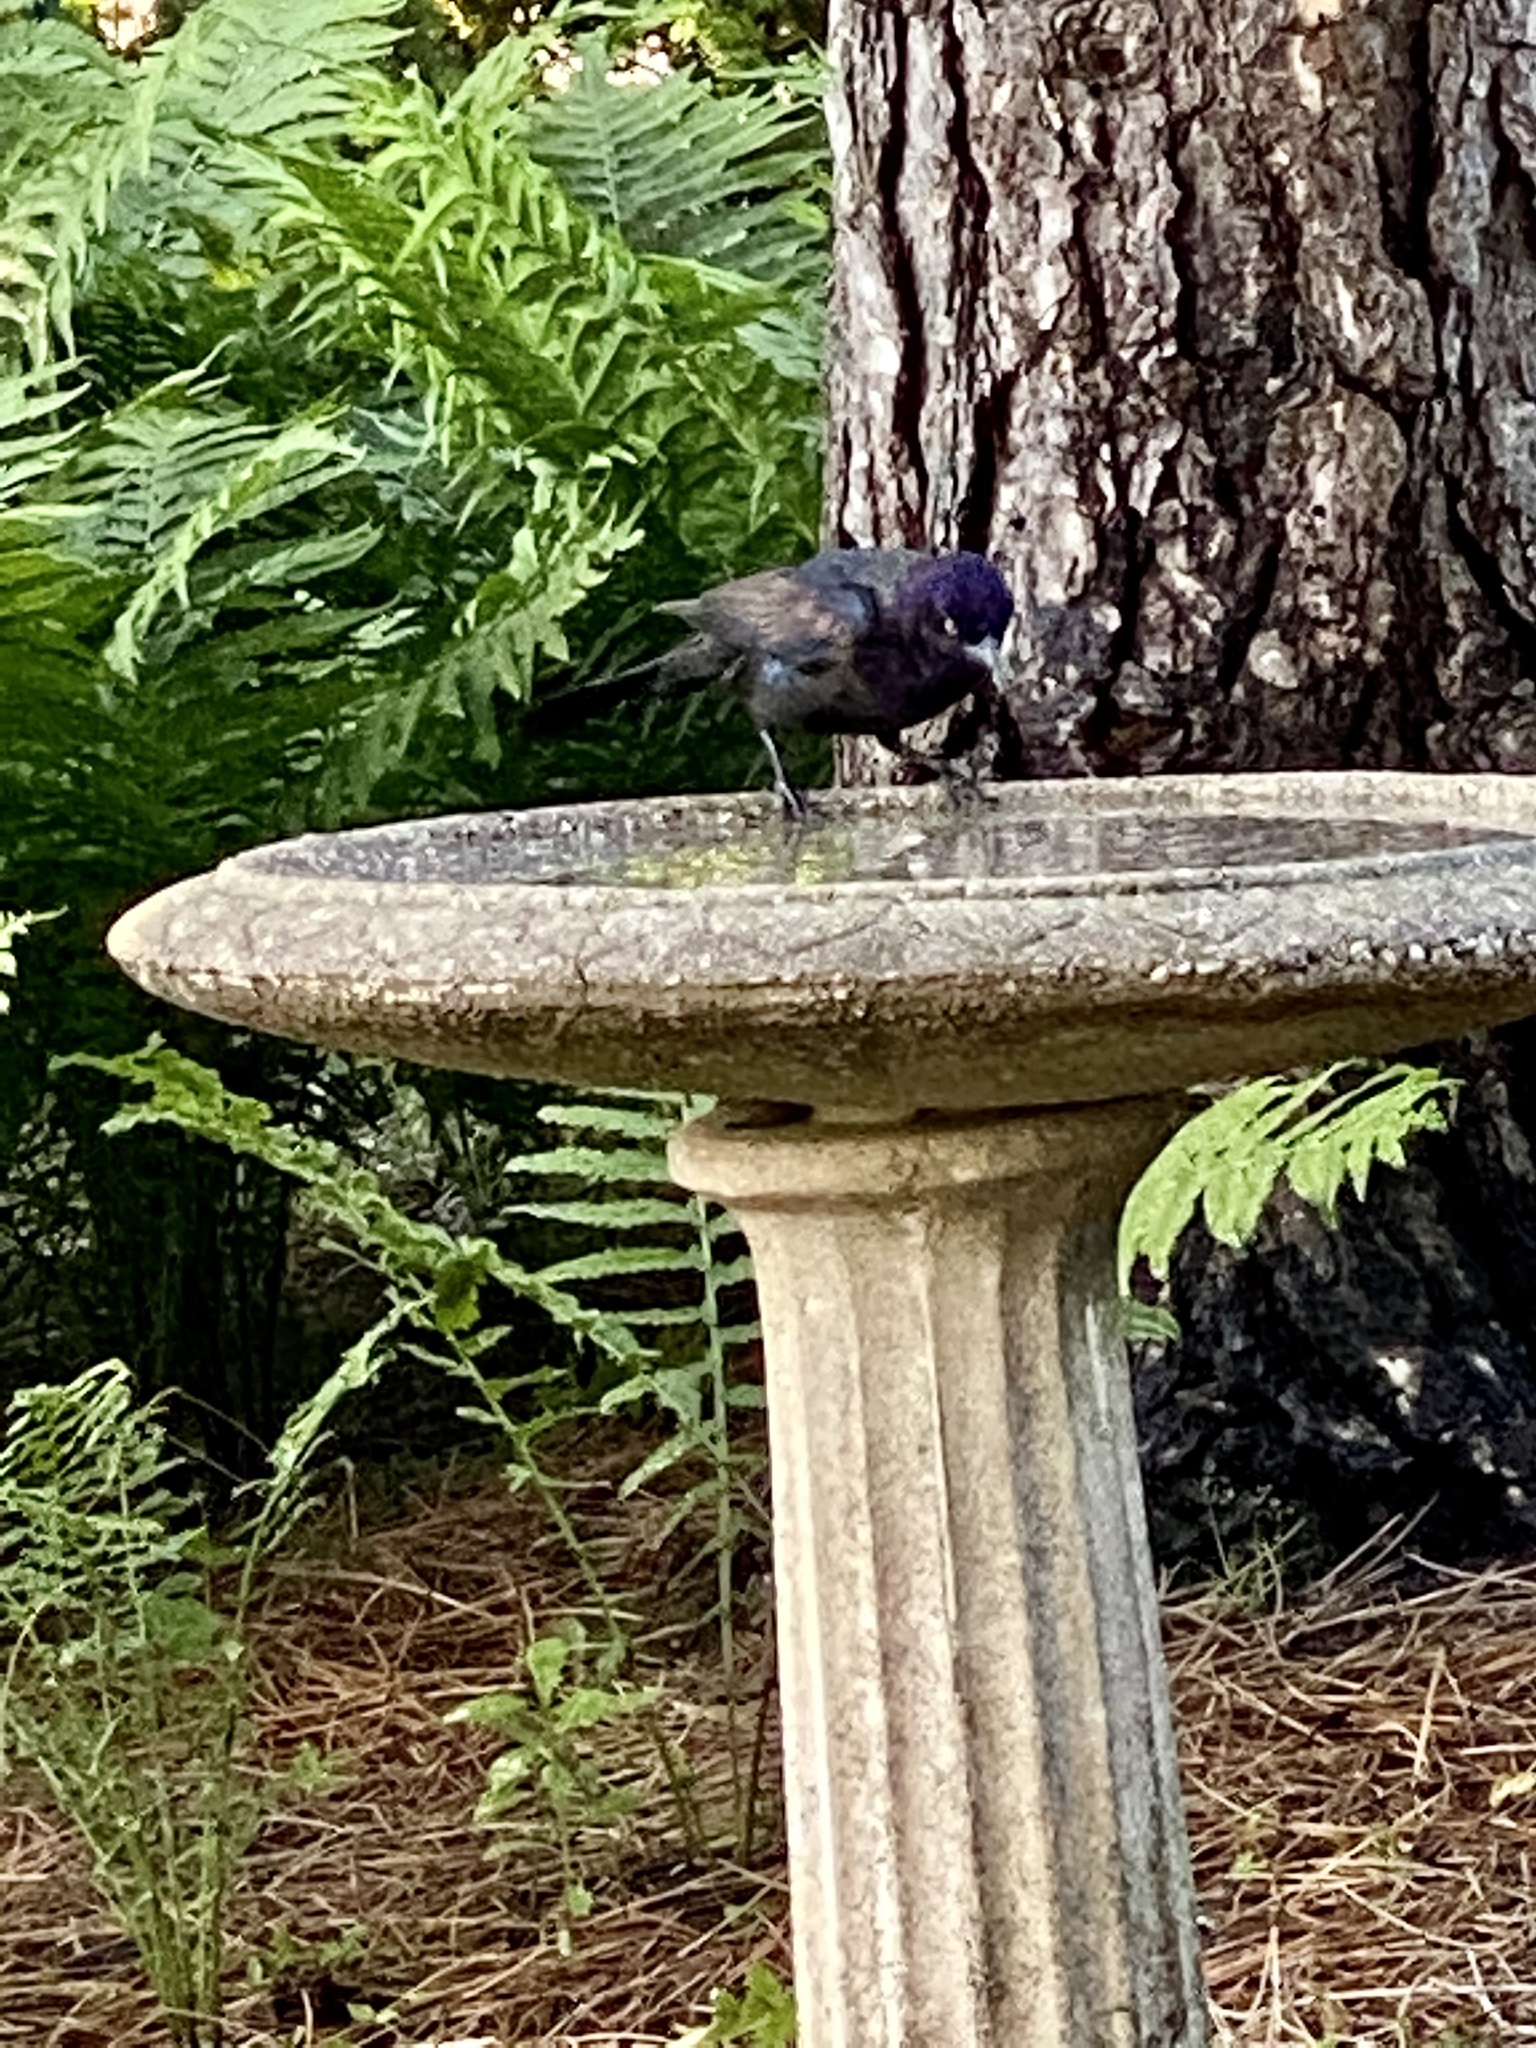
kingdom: Animalia
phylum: Chordata
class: Aves
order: Passeriformes
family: Icteridae
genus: Quiscalus
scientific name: Quiscalus quiscula
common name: Common grackle
